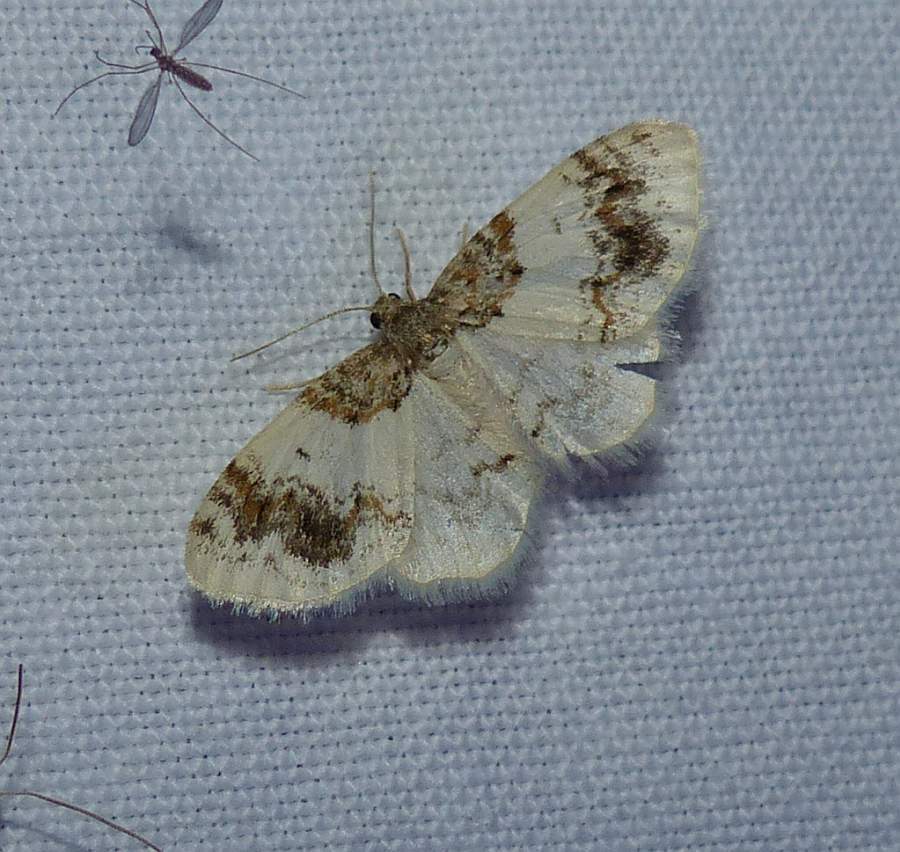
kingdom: Animalia
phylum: Arthropoda
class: Insecta
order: Lepidoptera
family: Geometridae
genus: Hydrelia
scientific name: Hydrelia condensata
